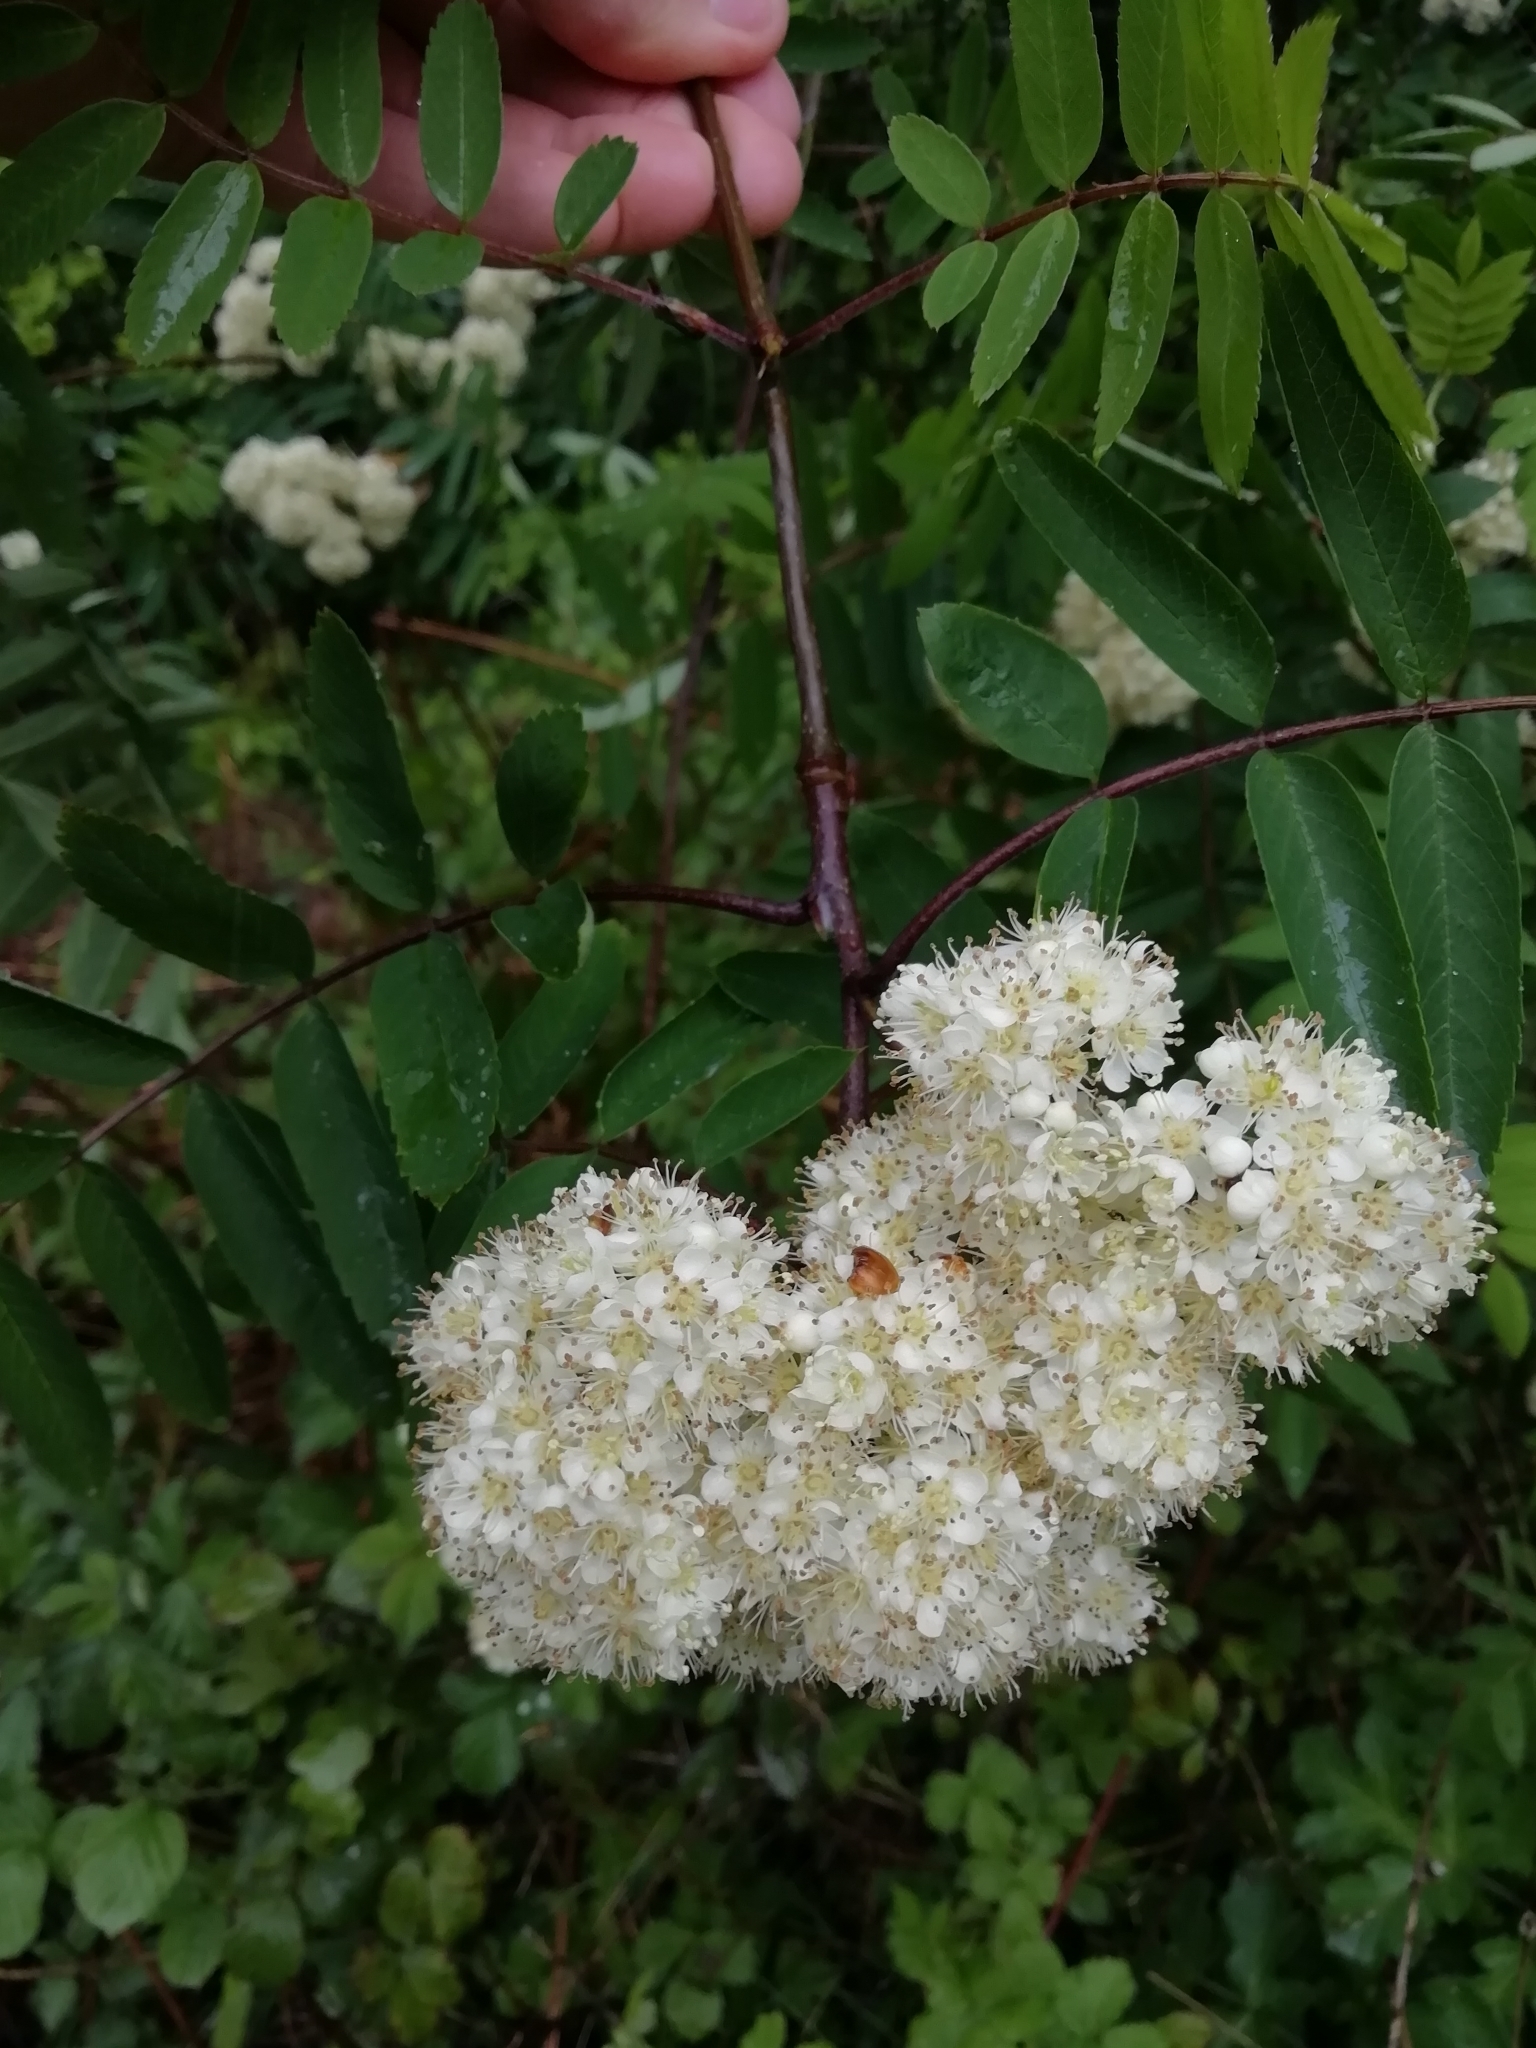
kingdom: Plantae
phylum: Tracheophyta
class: Magnoliopsida
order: Rosales
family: Rosaceae
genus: Sorbus
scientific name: Sorbus aucuparia
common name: Rowan
